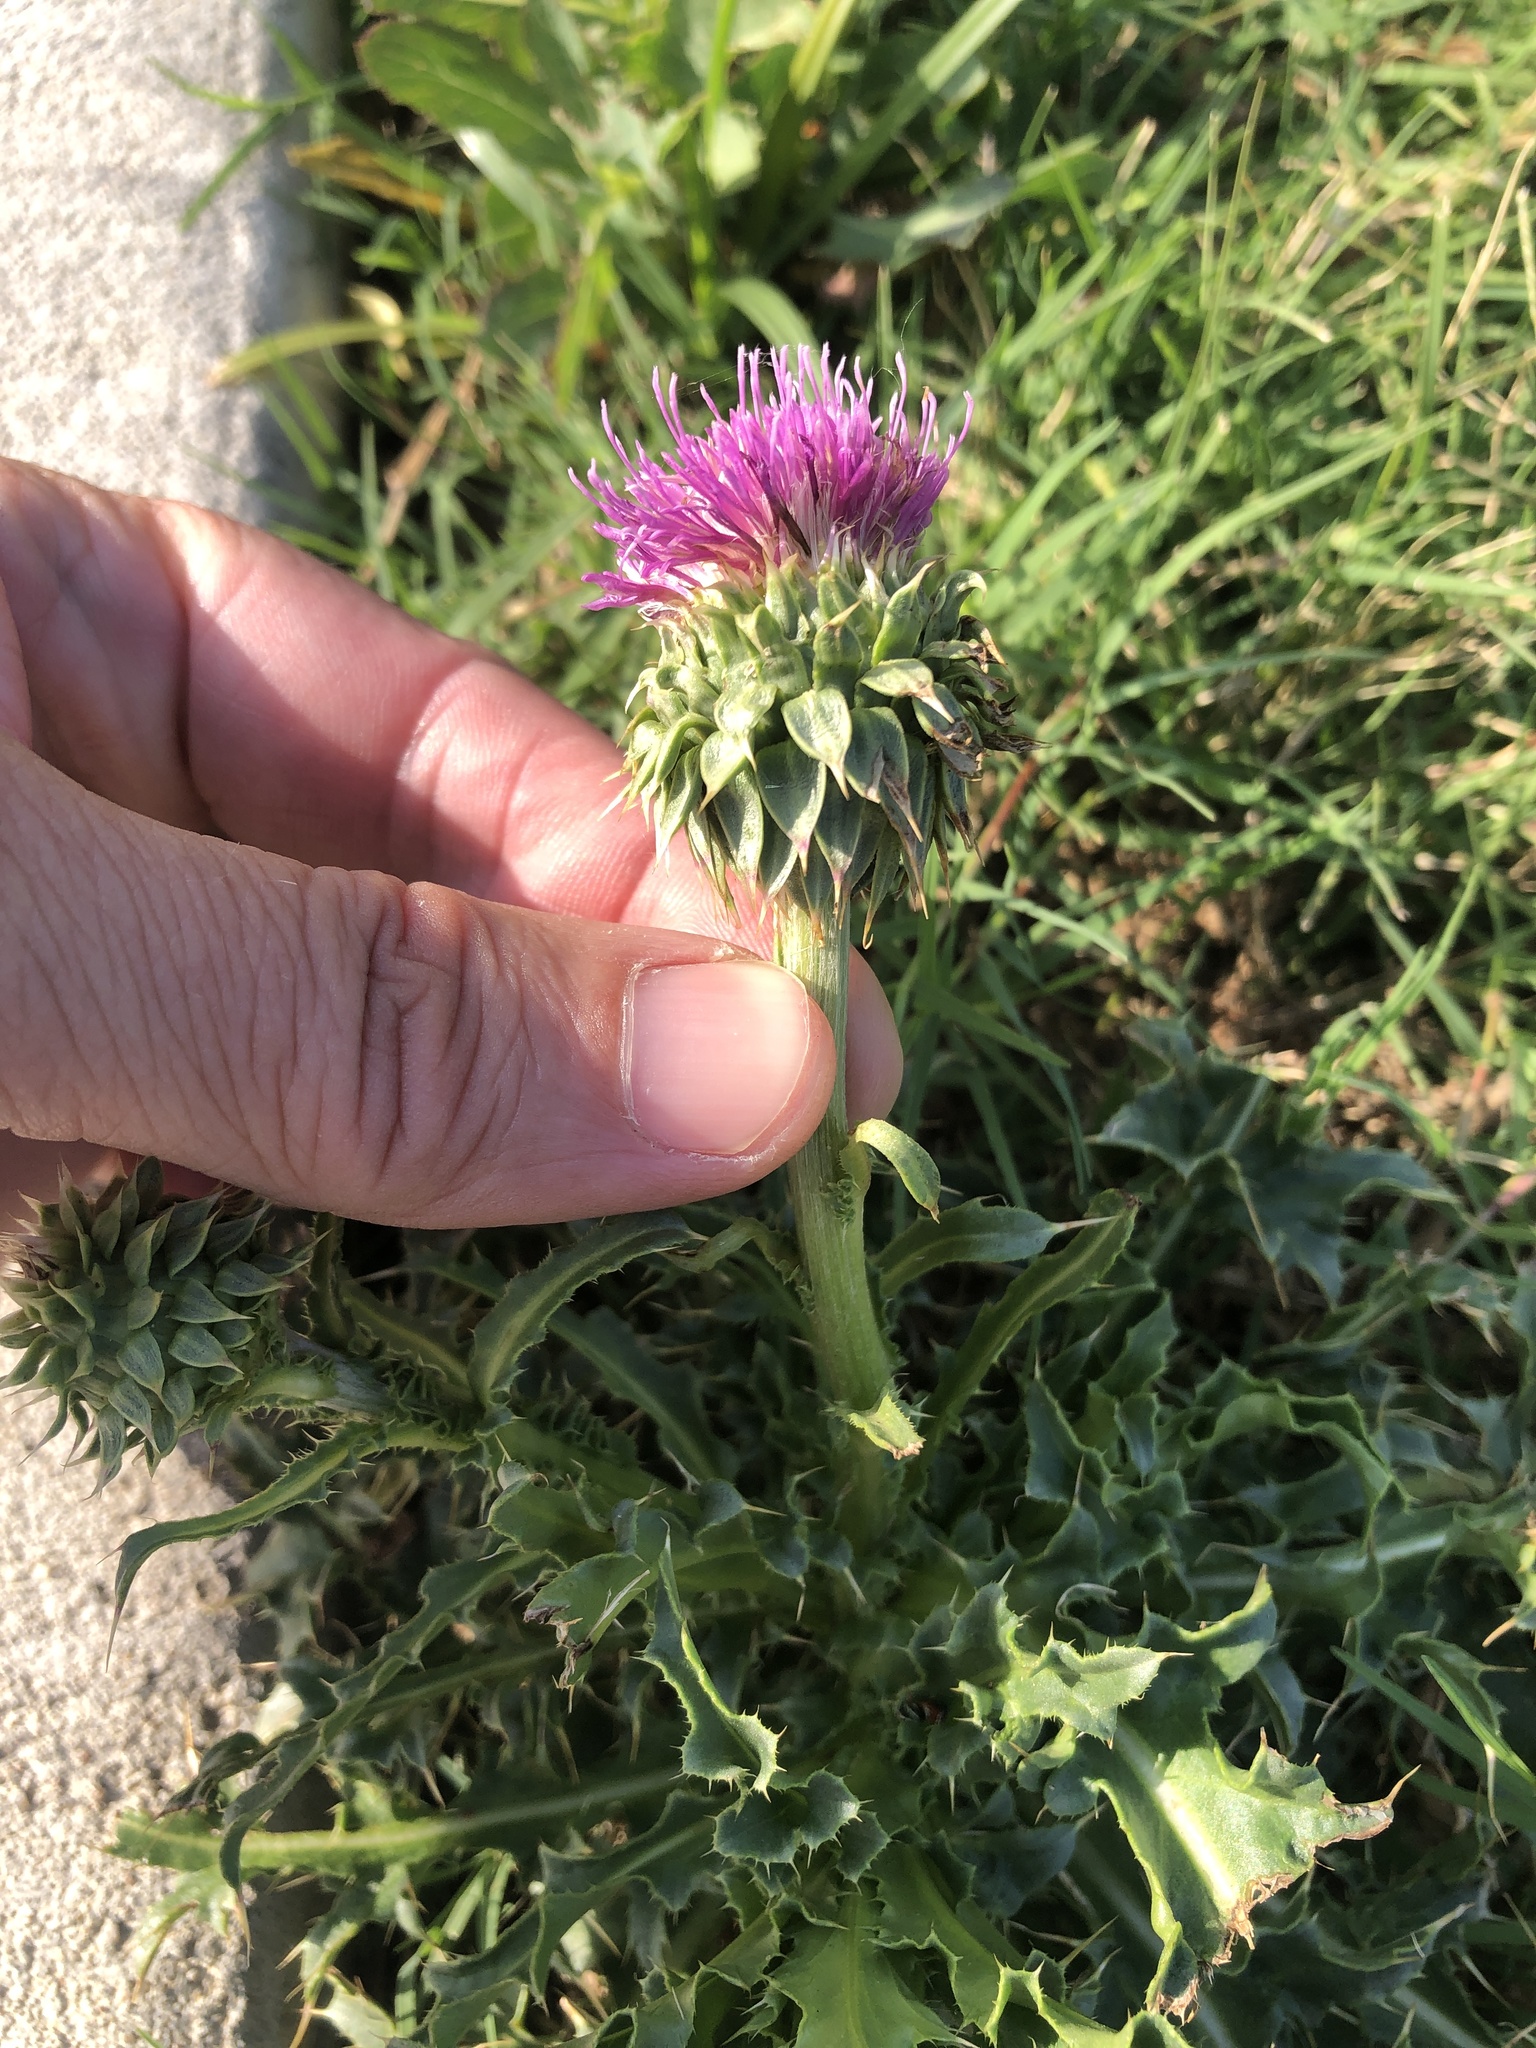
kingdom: Plantae
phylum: Tracheophyta
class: Magnoliopsida
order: Asterales
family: Asteraceae
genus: Carduus
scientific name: Carduus nutans
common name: Musk thistle
